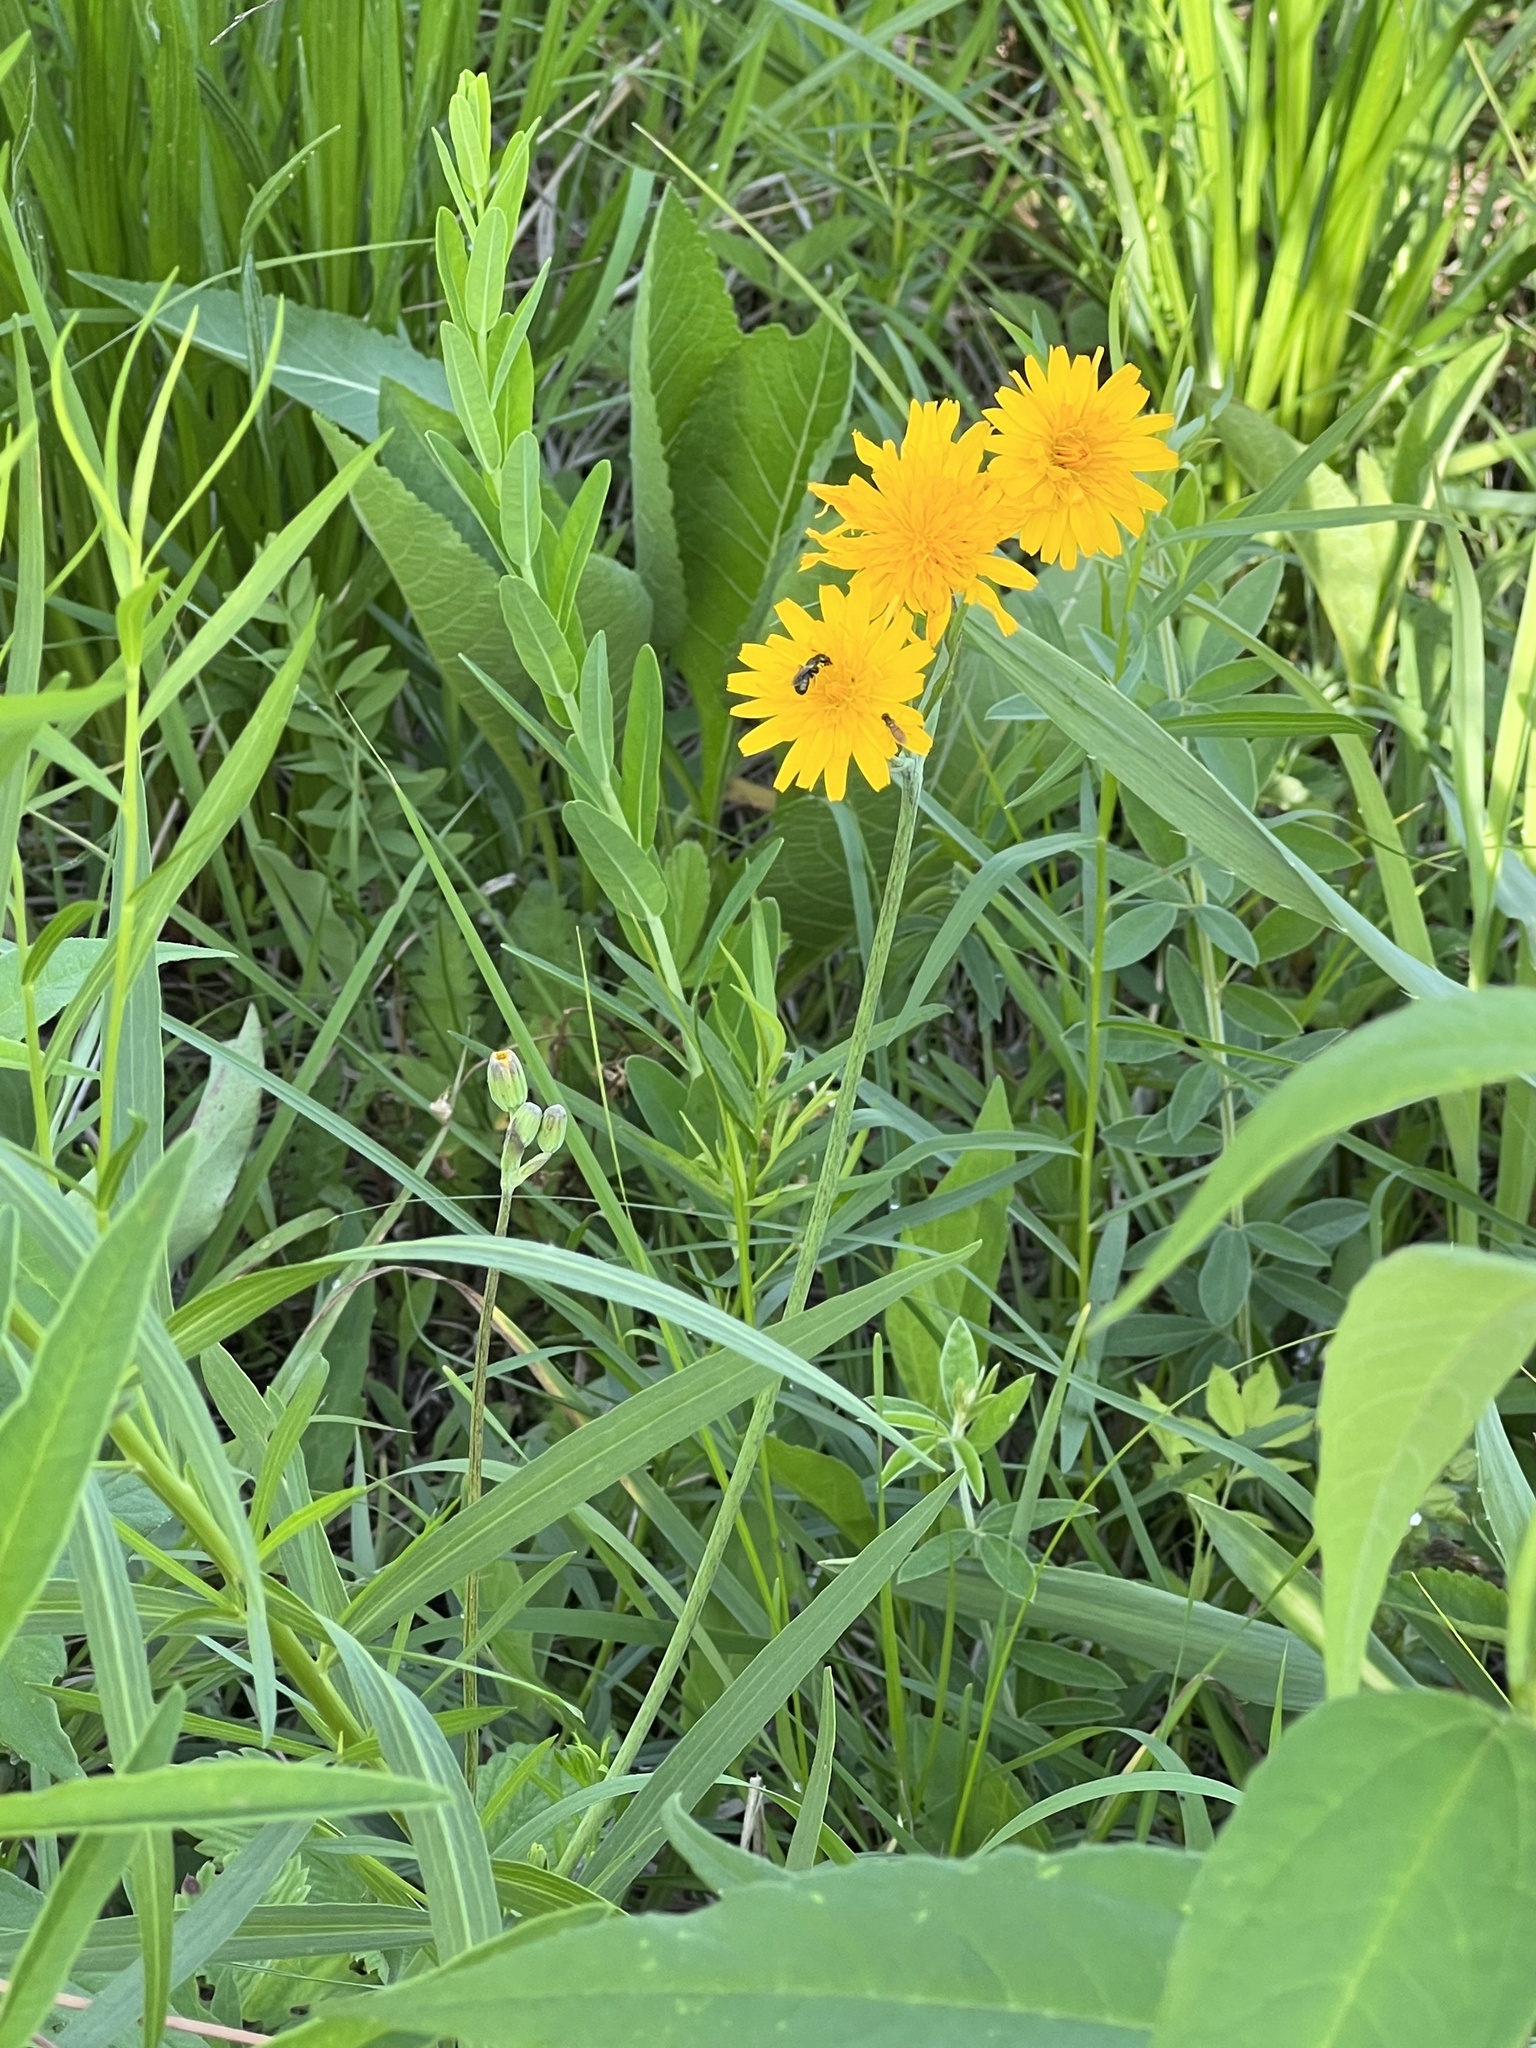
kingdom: Plantae
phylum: Tracheophyta
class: Magnoliopsida
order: Asterales
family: Asteraceae
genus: Krigia
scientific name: Krigia biflora
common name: Orange dwarf-dandelion
